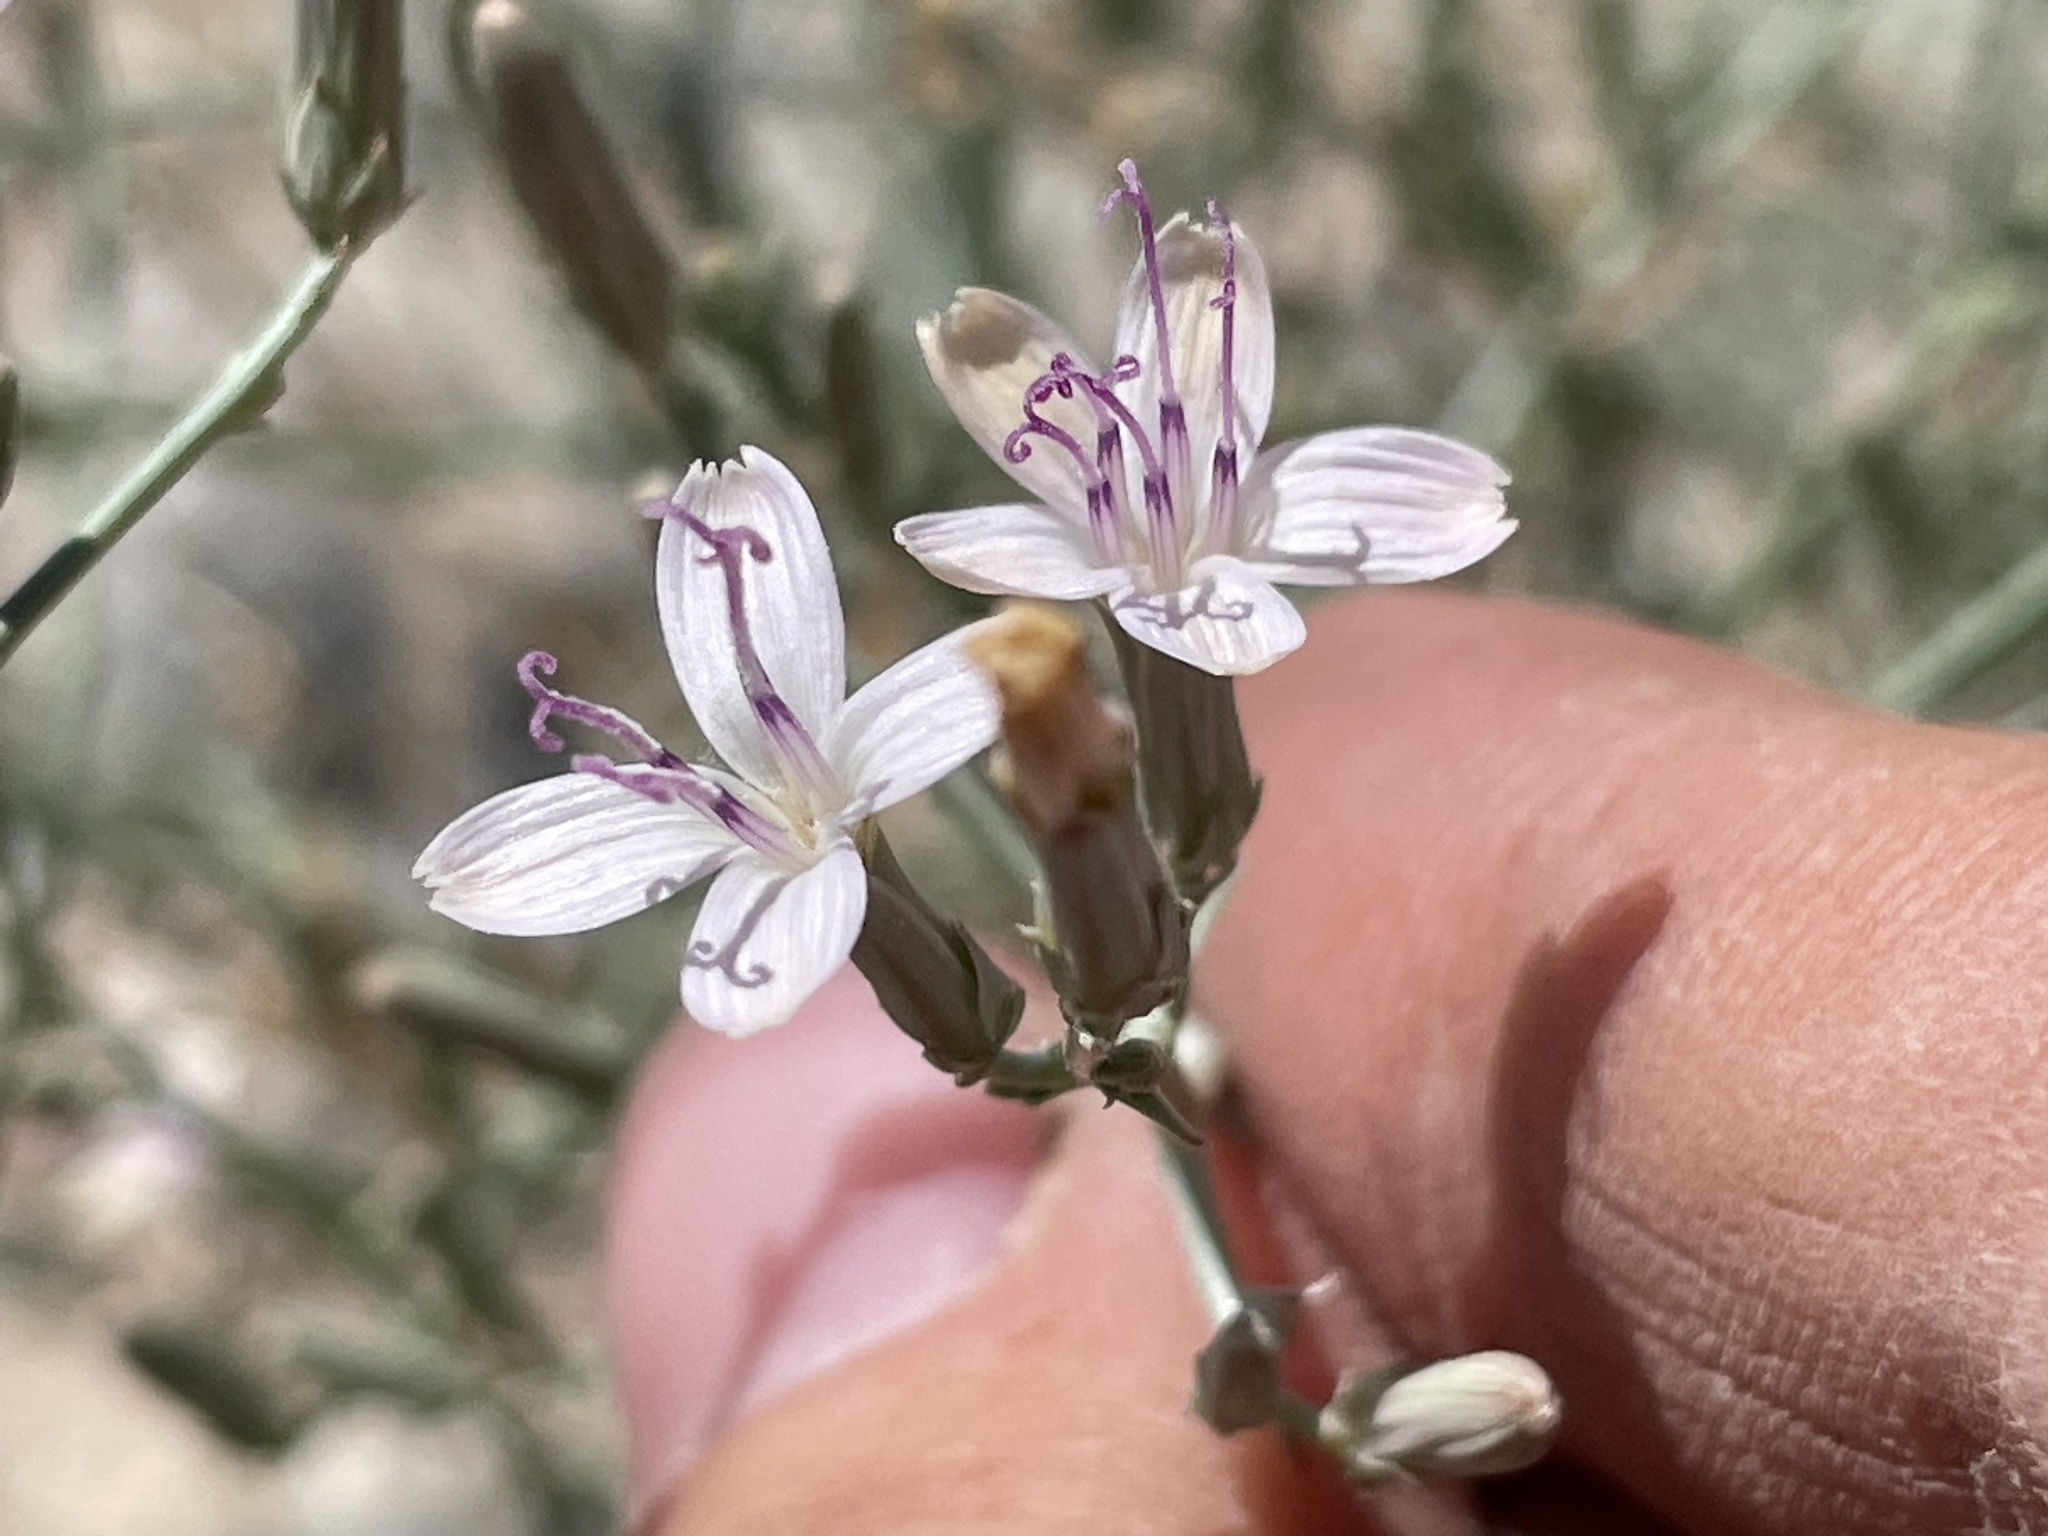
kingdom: Plantae
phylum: Tracheophyta
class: Magnoliopsida
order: Asterales
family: Asteraceae
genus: Stephanomeria
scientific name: Stephanomeria pauciflora
